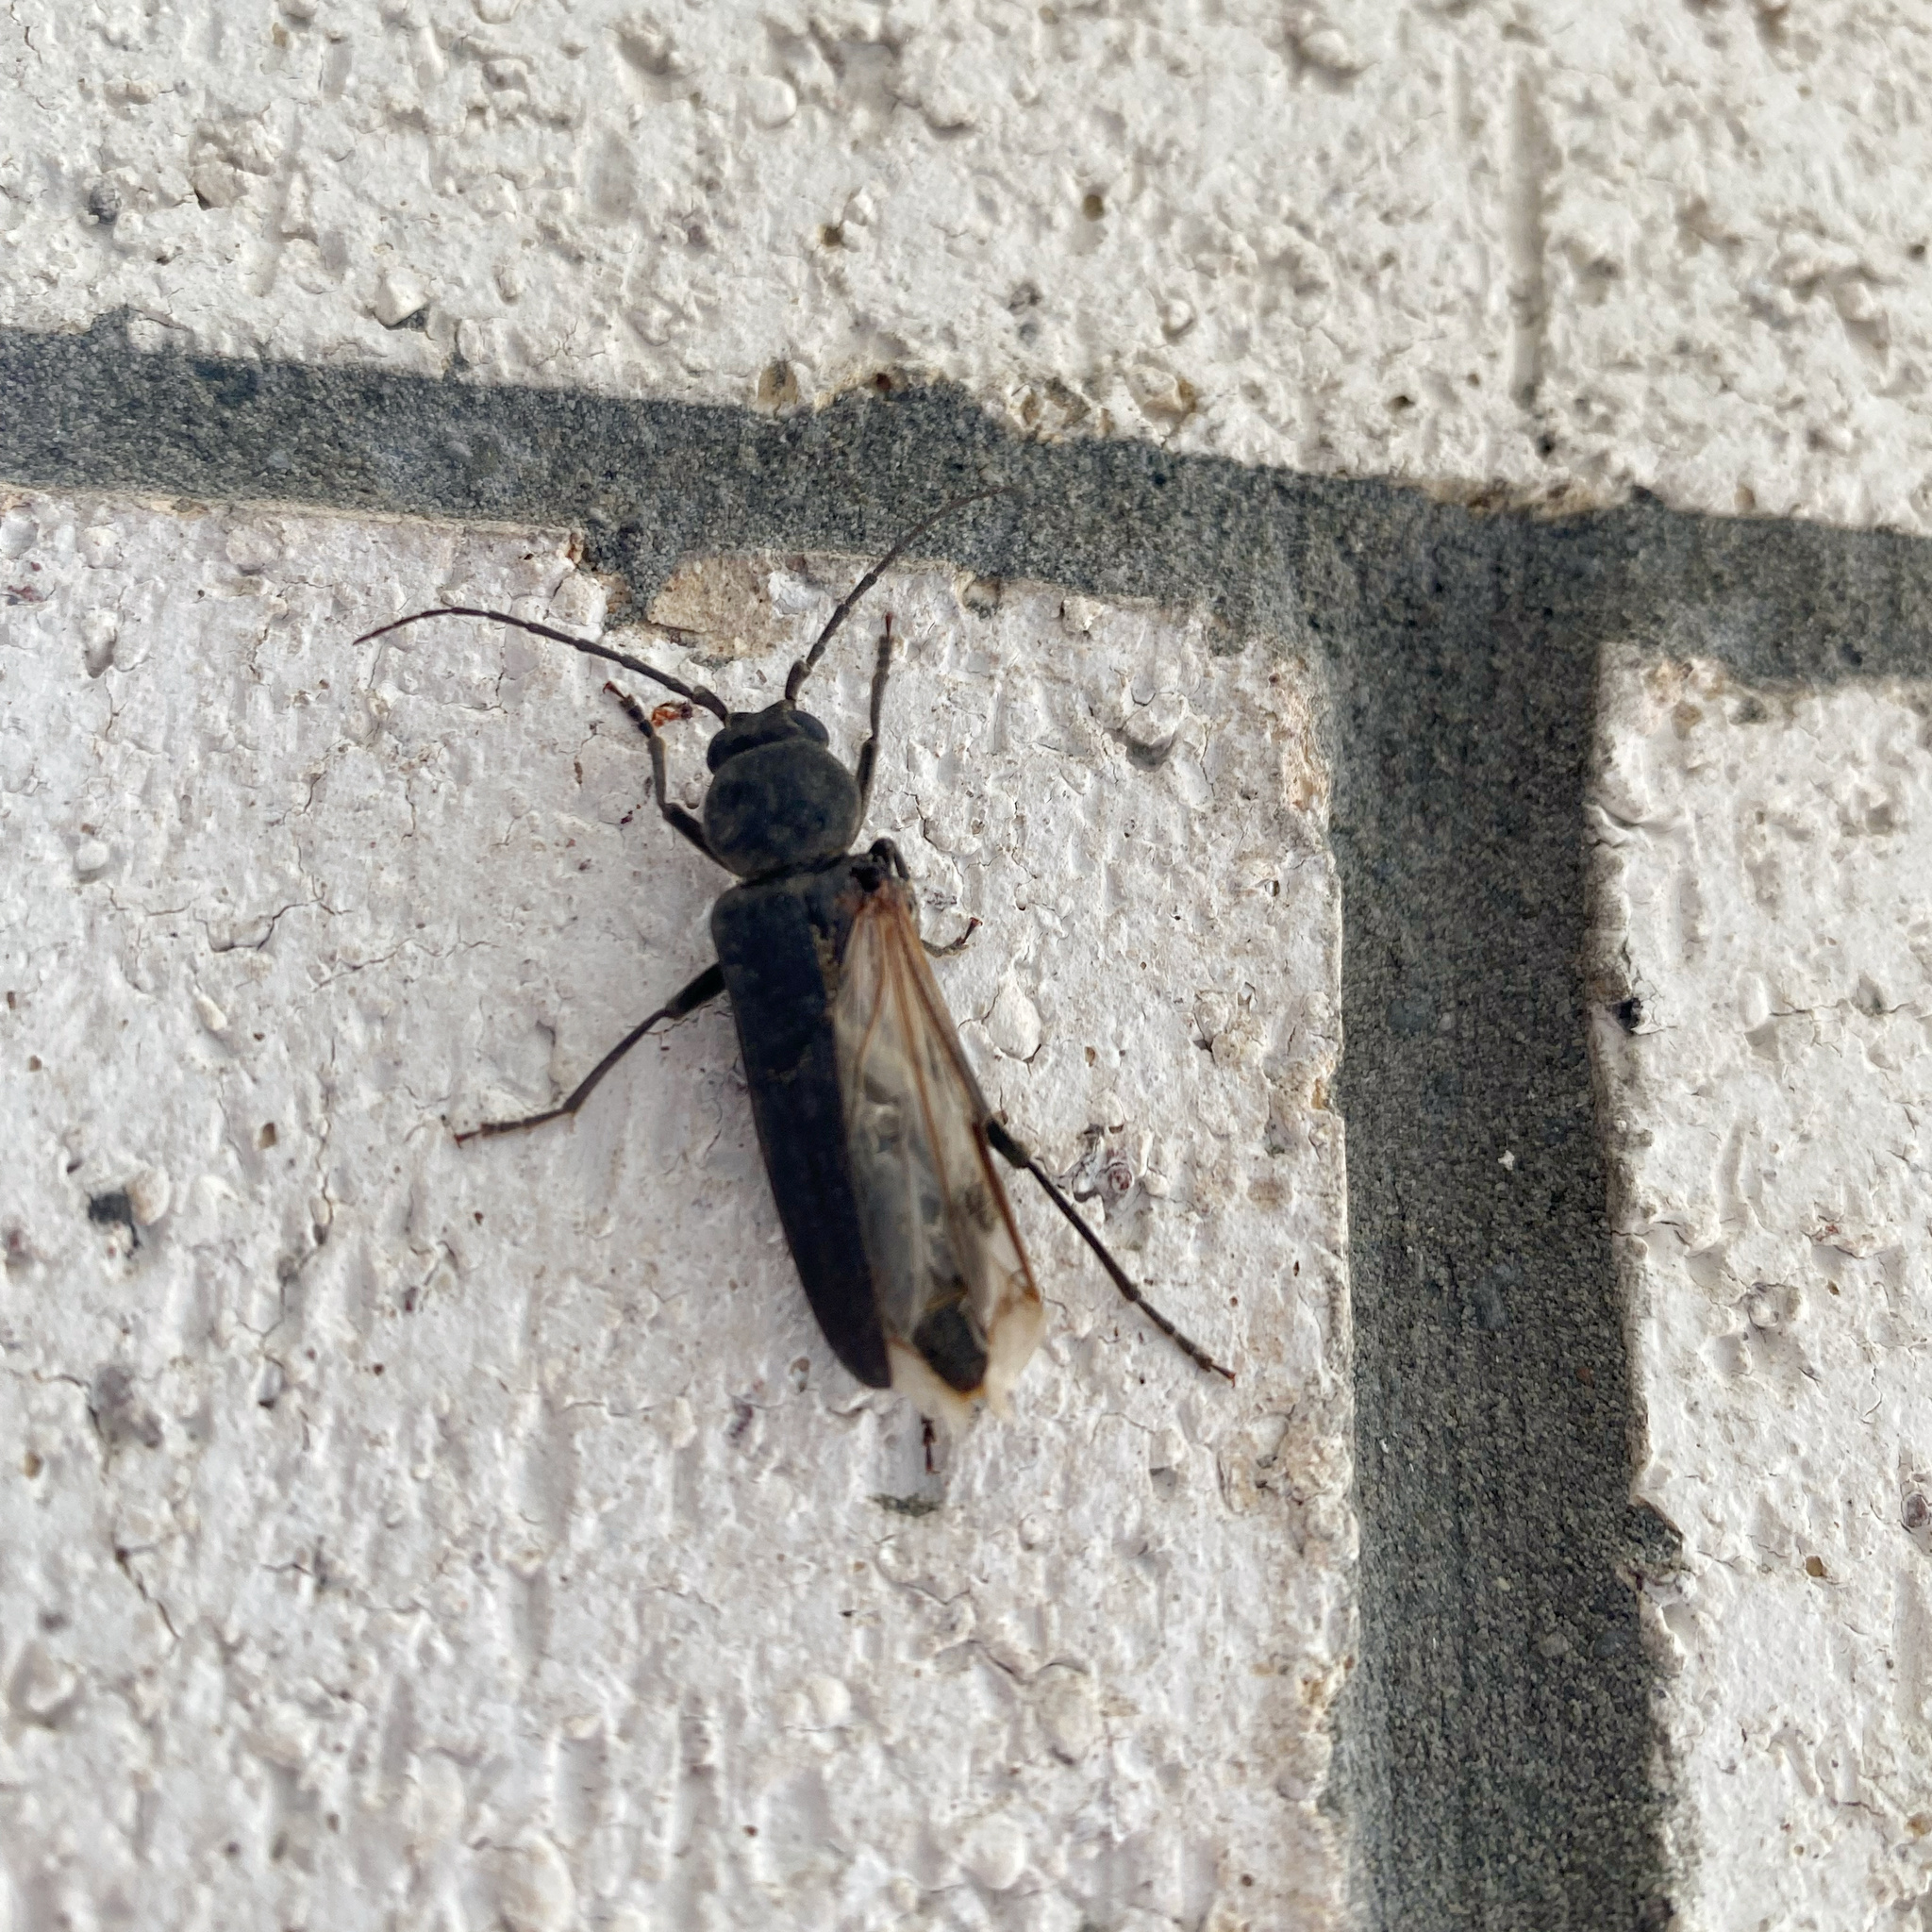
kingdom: Animalia
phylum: Arthropoda
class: Insecta
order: Coleoptera
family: Cerambycidae
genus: Arhopalus
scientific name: Arhopalus ferus
